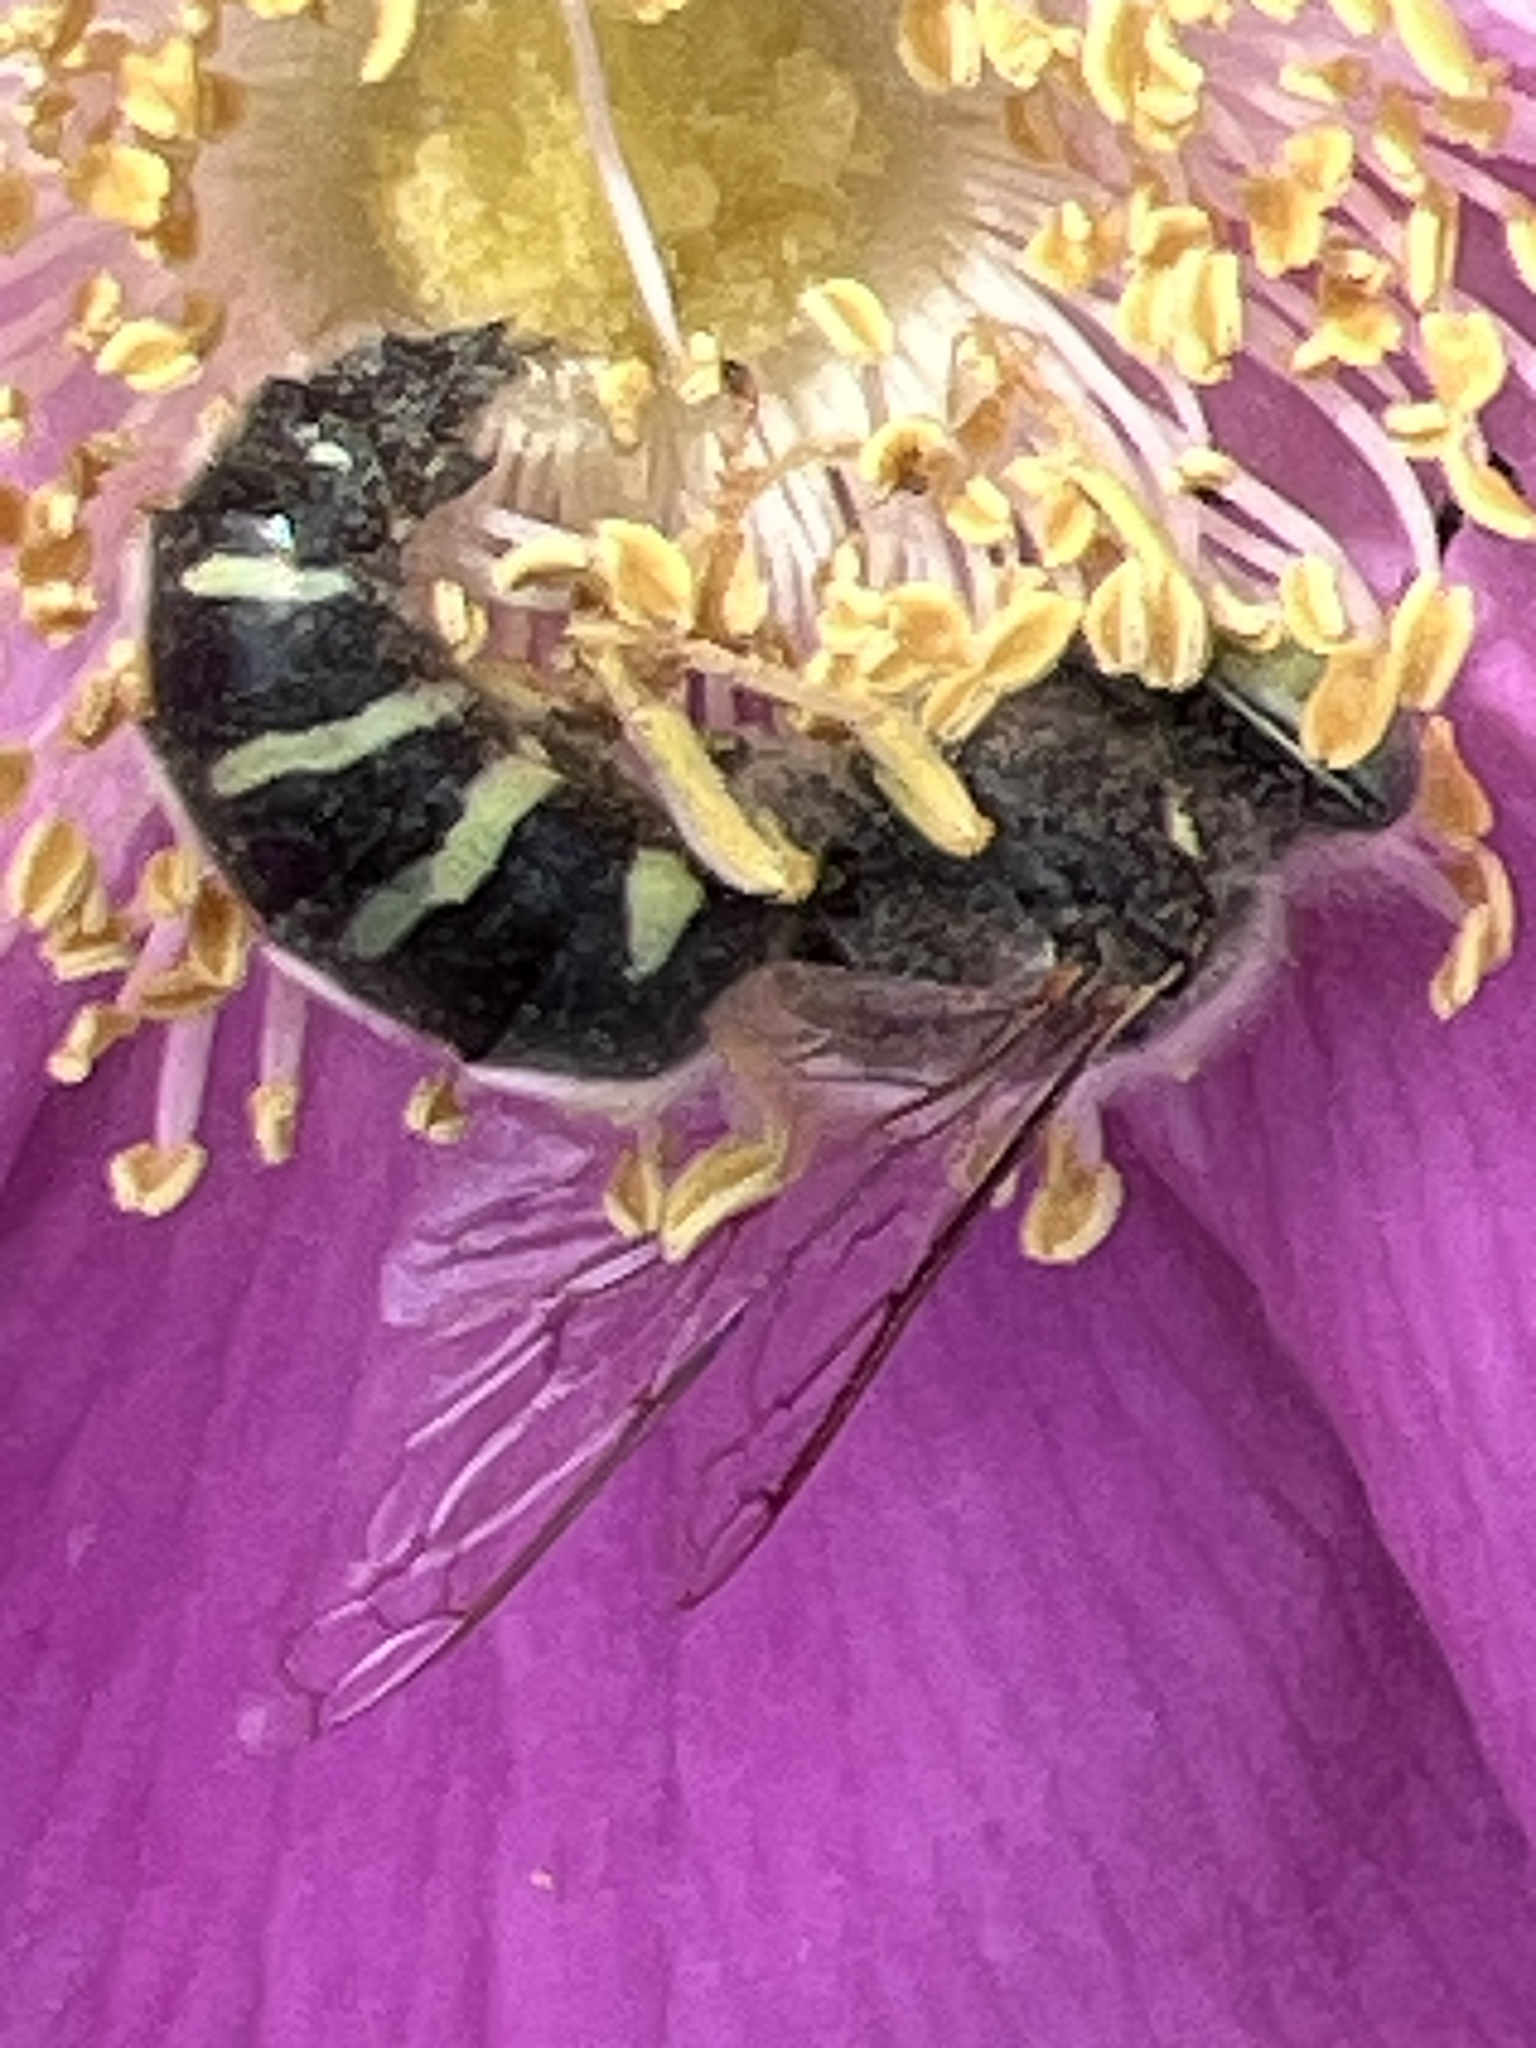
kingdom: Animalia
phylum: Arthropoda
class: Insecta
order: Hymenoptera
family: Crabronidae
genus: Bembix
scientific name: Bembix americana
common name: American sand wasp
